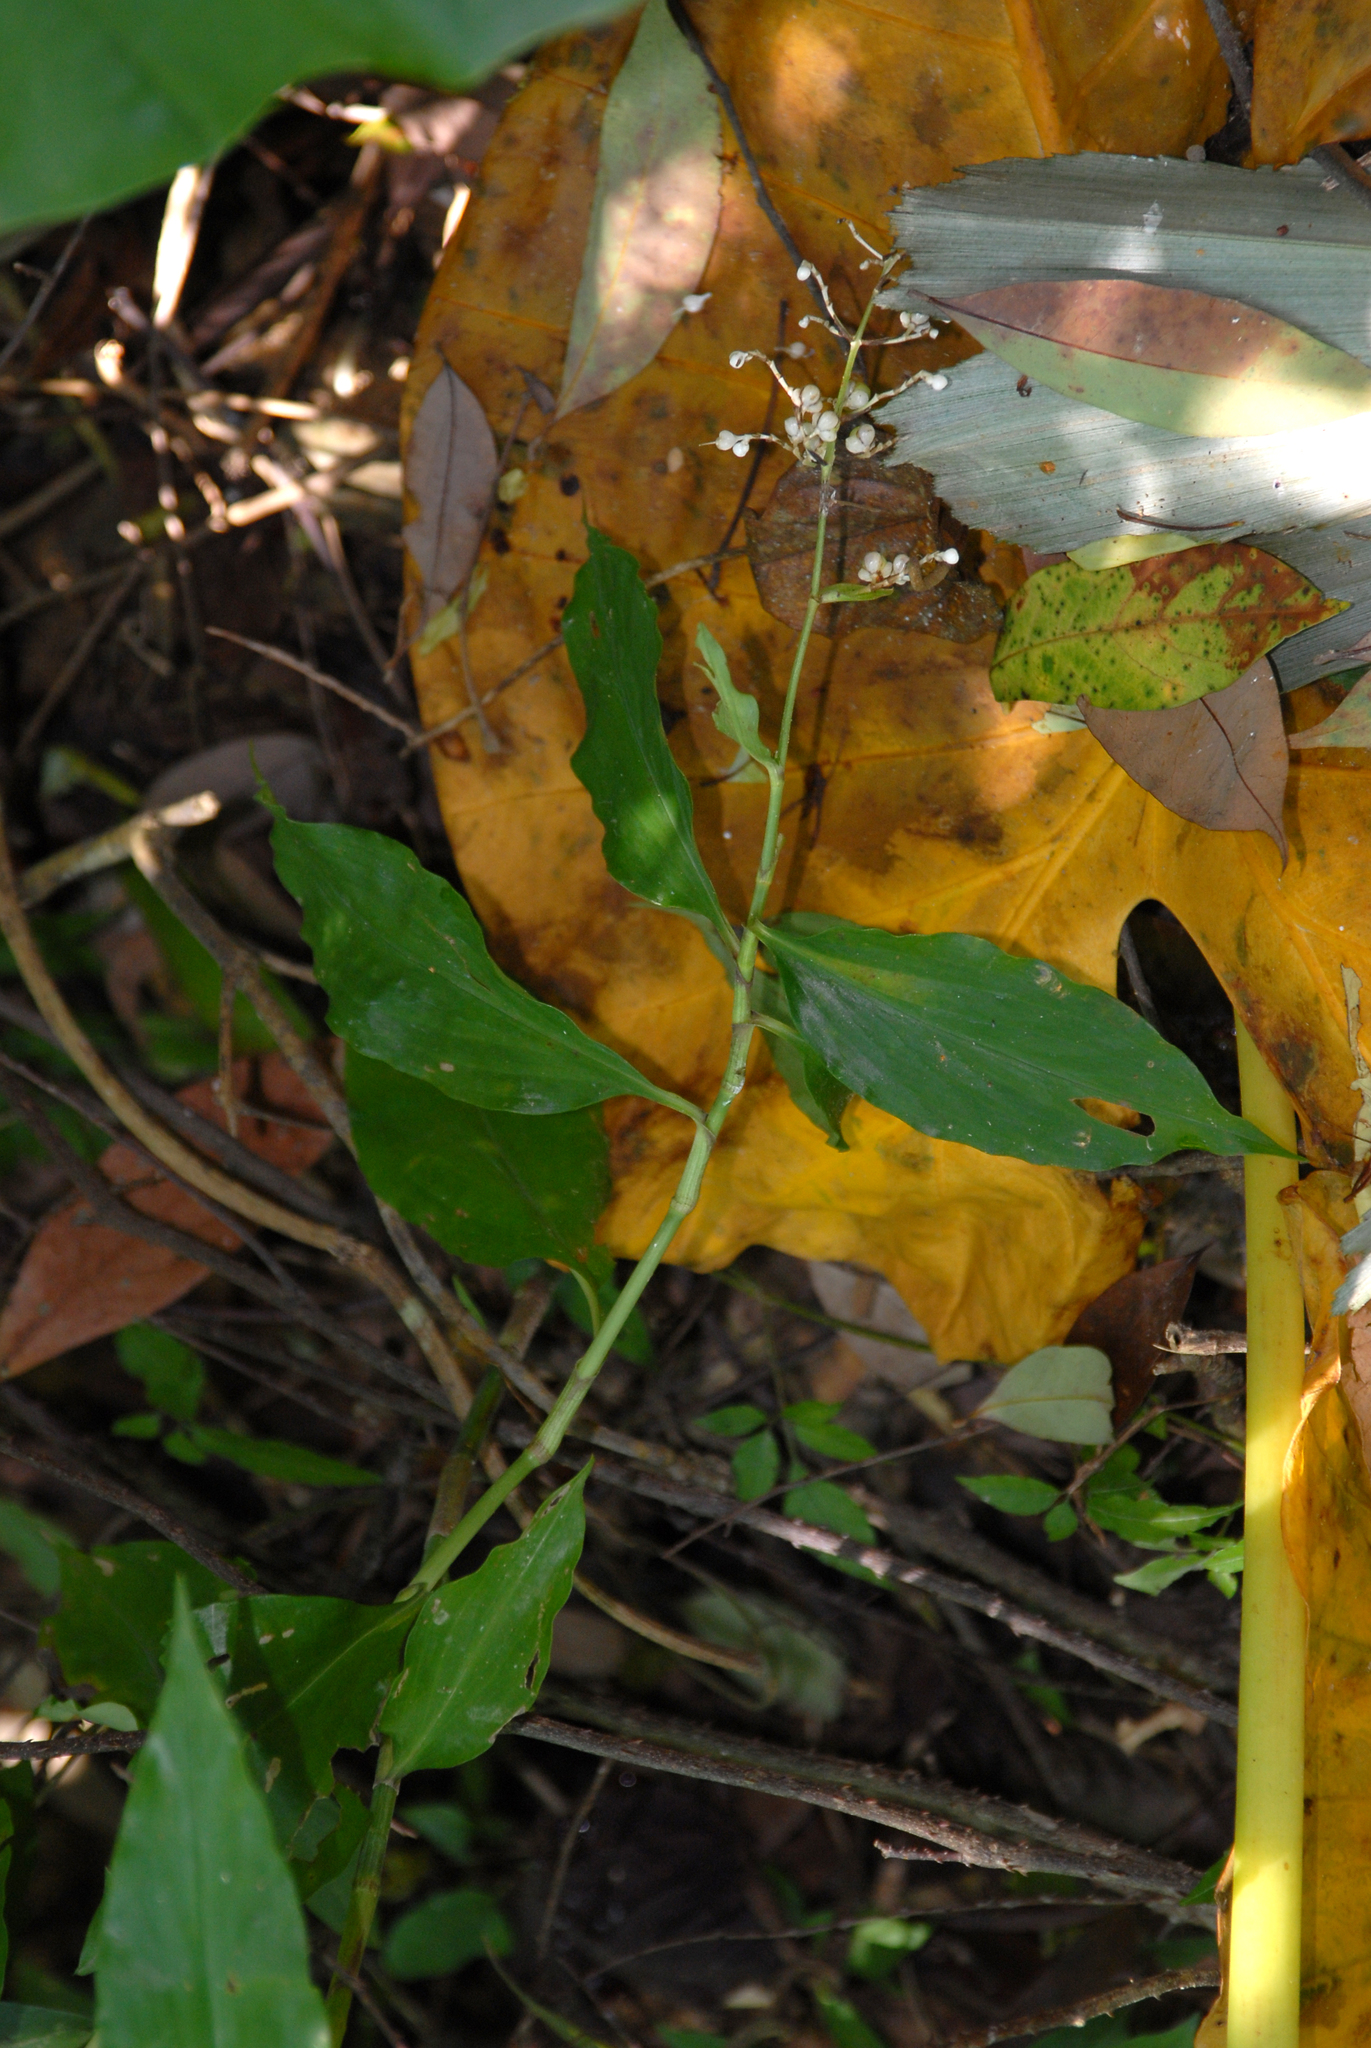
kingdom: Plantae
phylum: Tracheophyta
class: Liliopsida
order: Commelinales
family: Commelinaceae
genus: Pollia
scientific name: Pollia miranda
